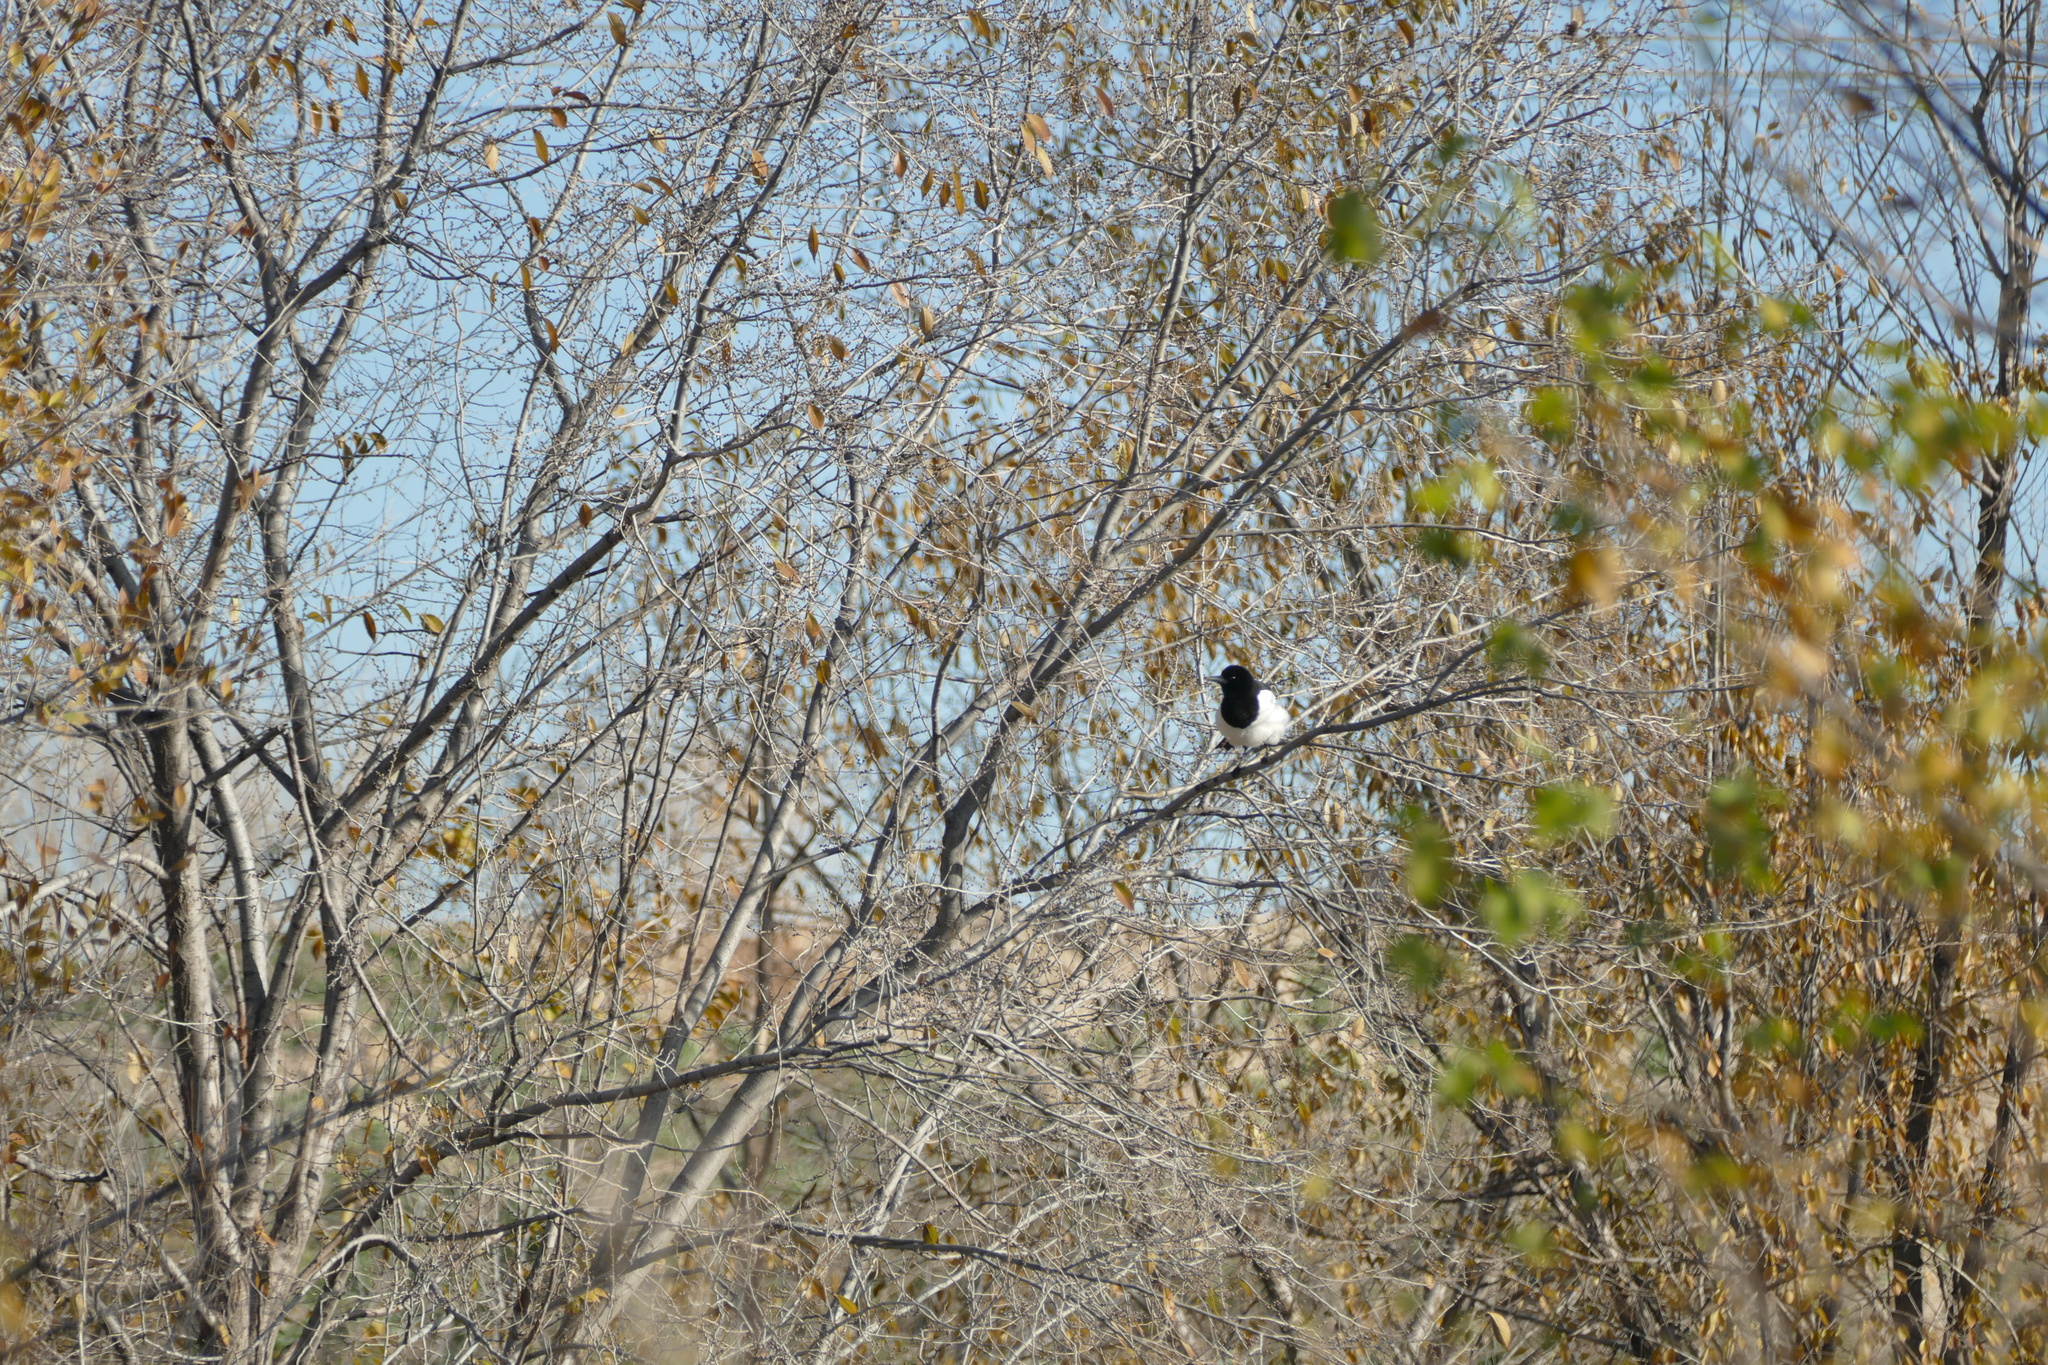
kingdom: Animalia
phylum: Chordata
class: Aves
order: Passeriformes
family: Corvidae
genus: Pica
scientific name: Pica pica
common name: Eurasian magpie
